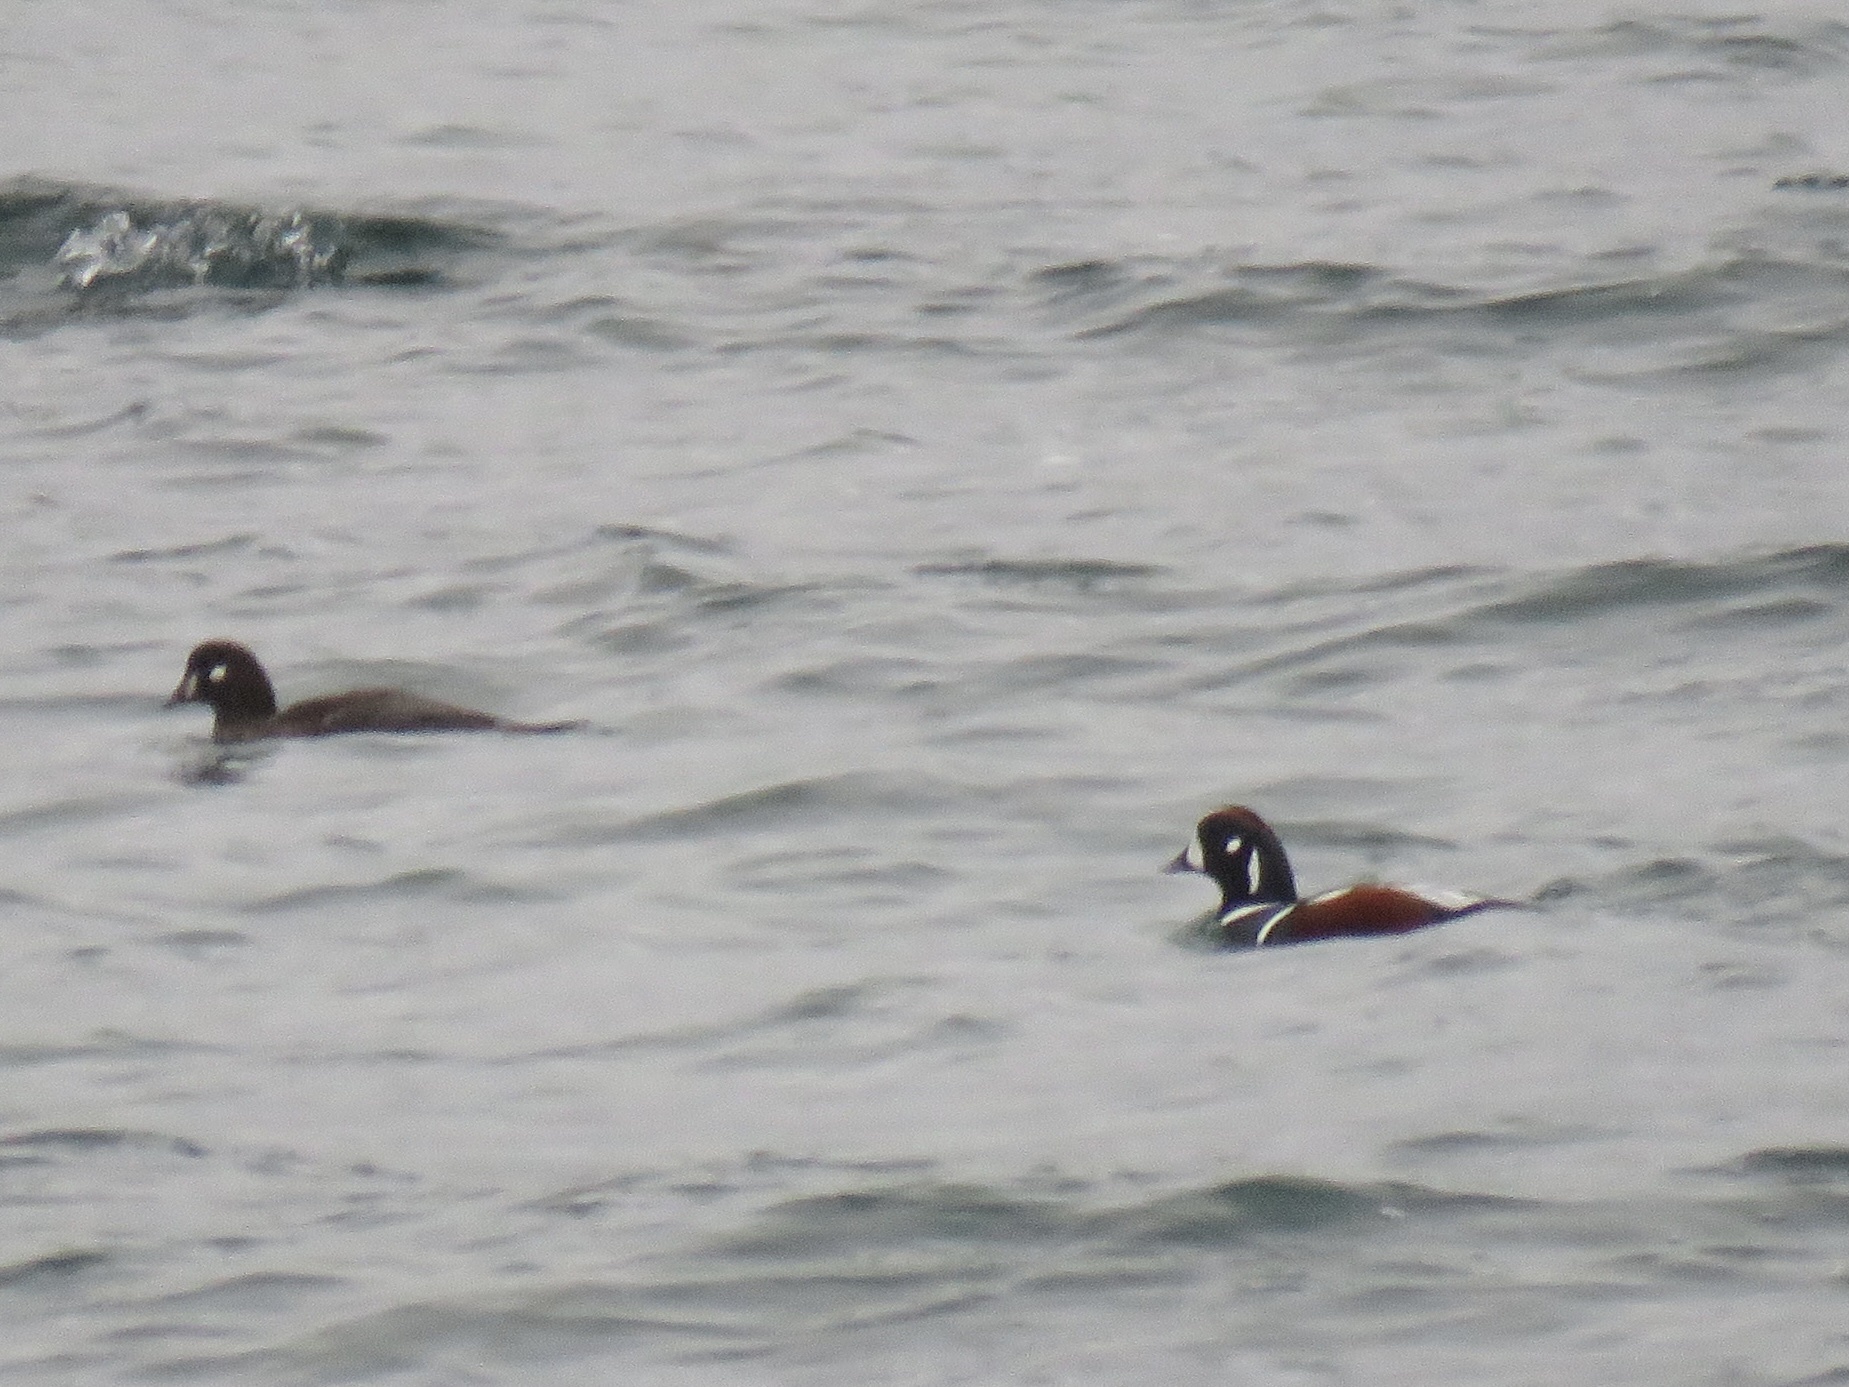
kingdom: Animalia
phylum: Chordata
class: Aves
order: Anseriformes
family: Anatidae
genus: Histrionicus
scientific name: Histrionicus histrionicus
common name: Harlequin duck
